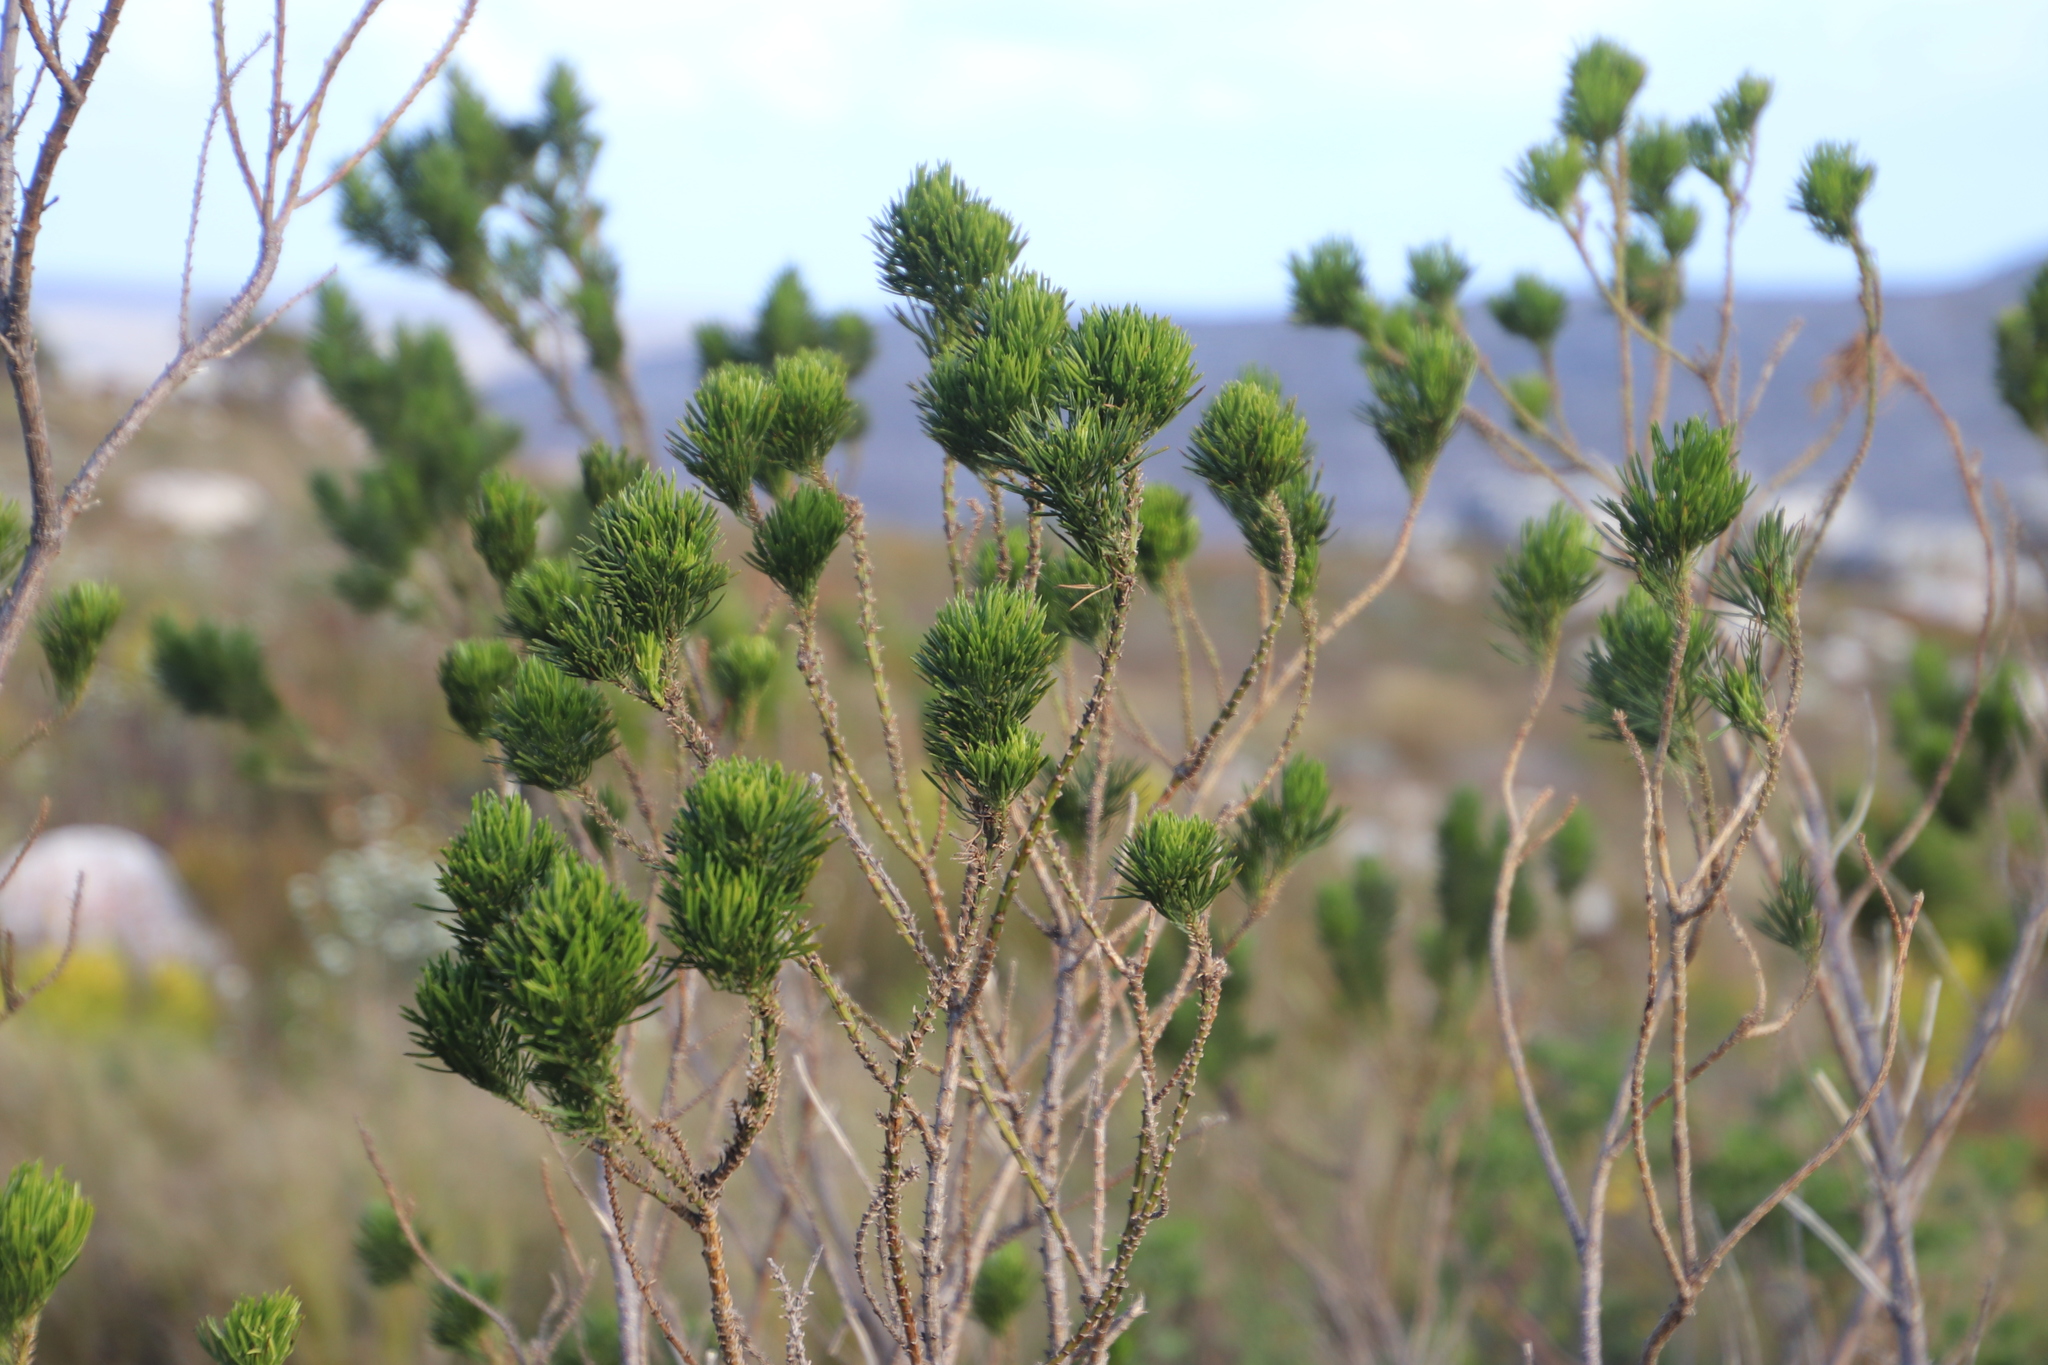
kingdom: Plantae
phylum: Tracheophyta
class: Magnoliopsida
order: Fabales
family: Fabaceae
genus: Psoralea
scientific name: Psoralea pinnata
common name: African scurfpea
